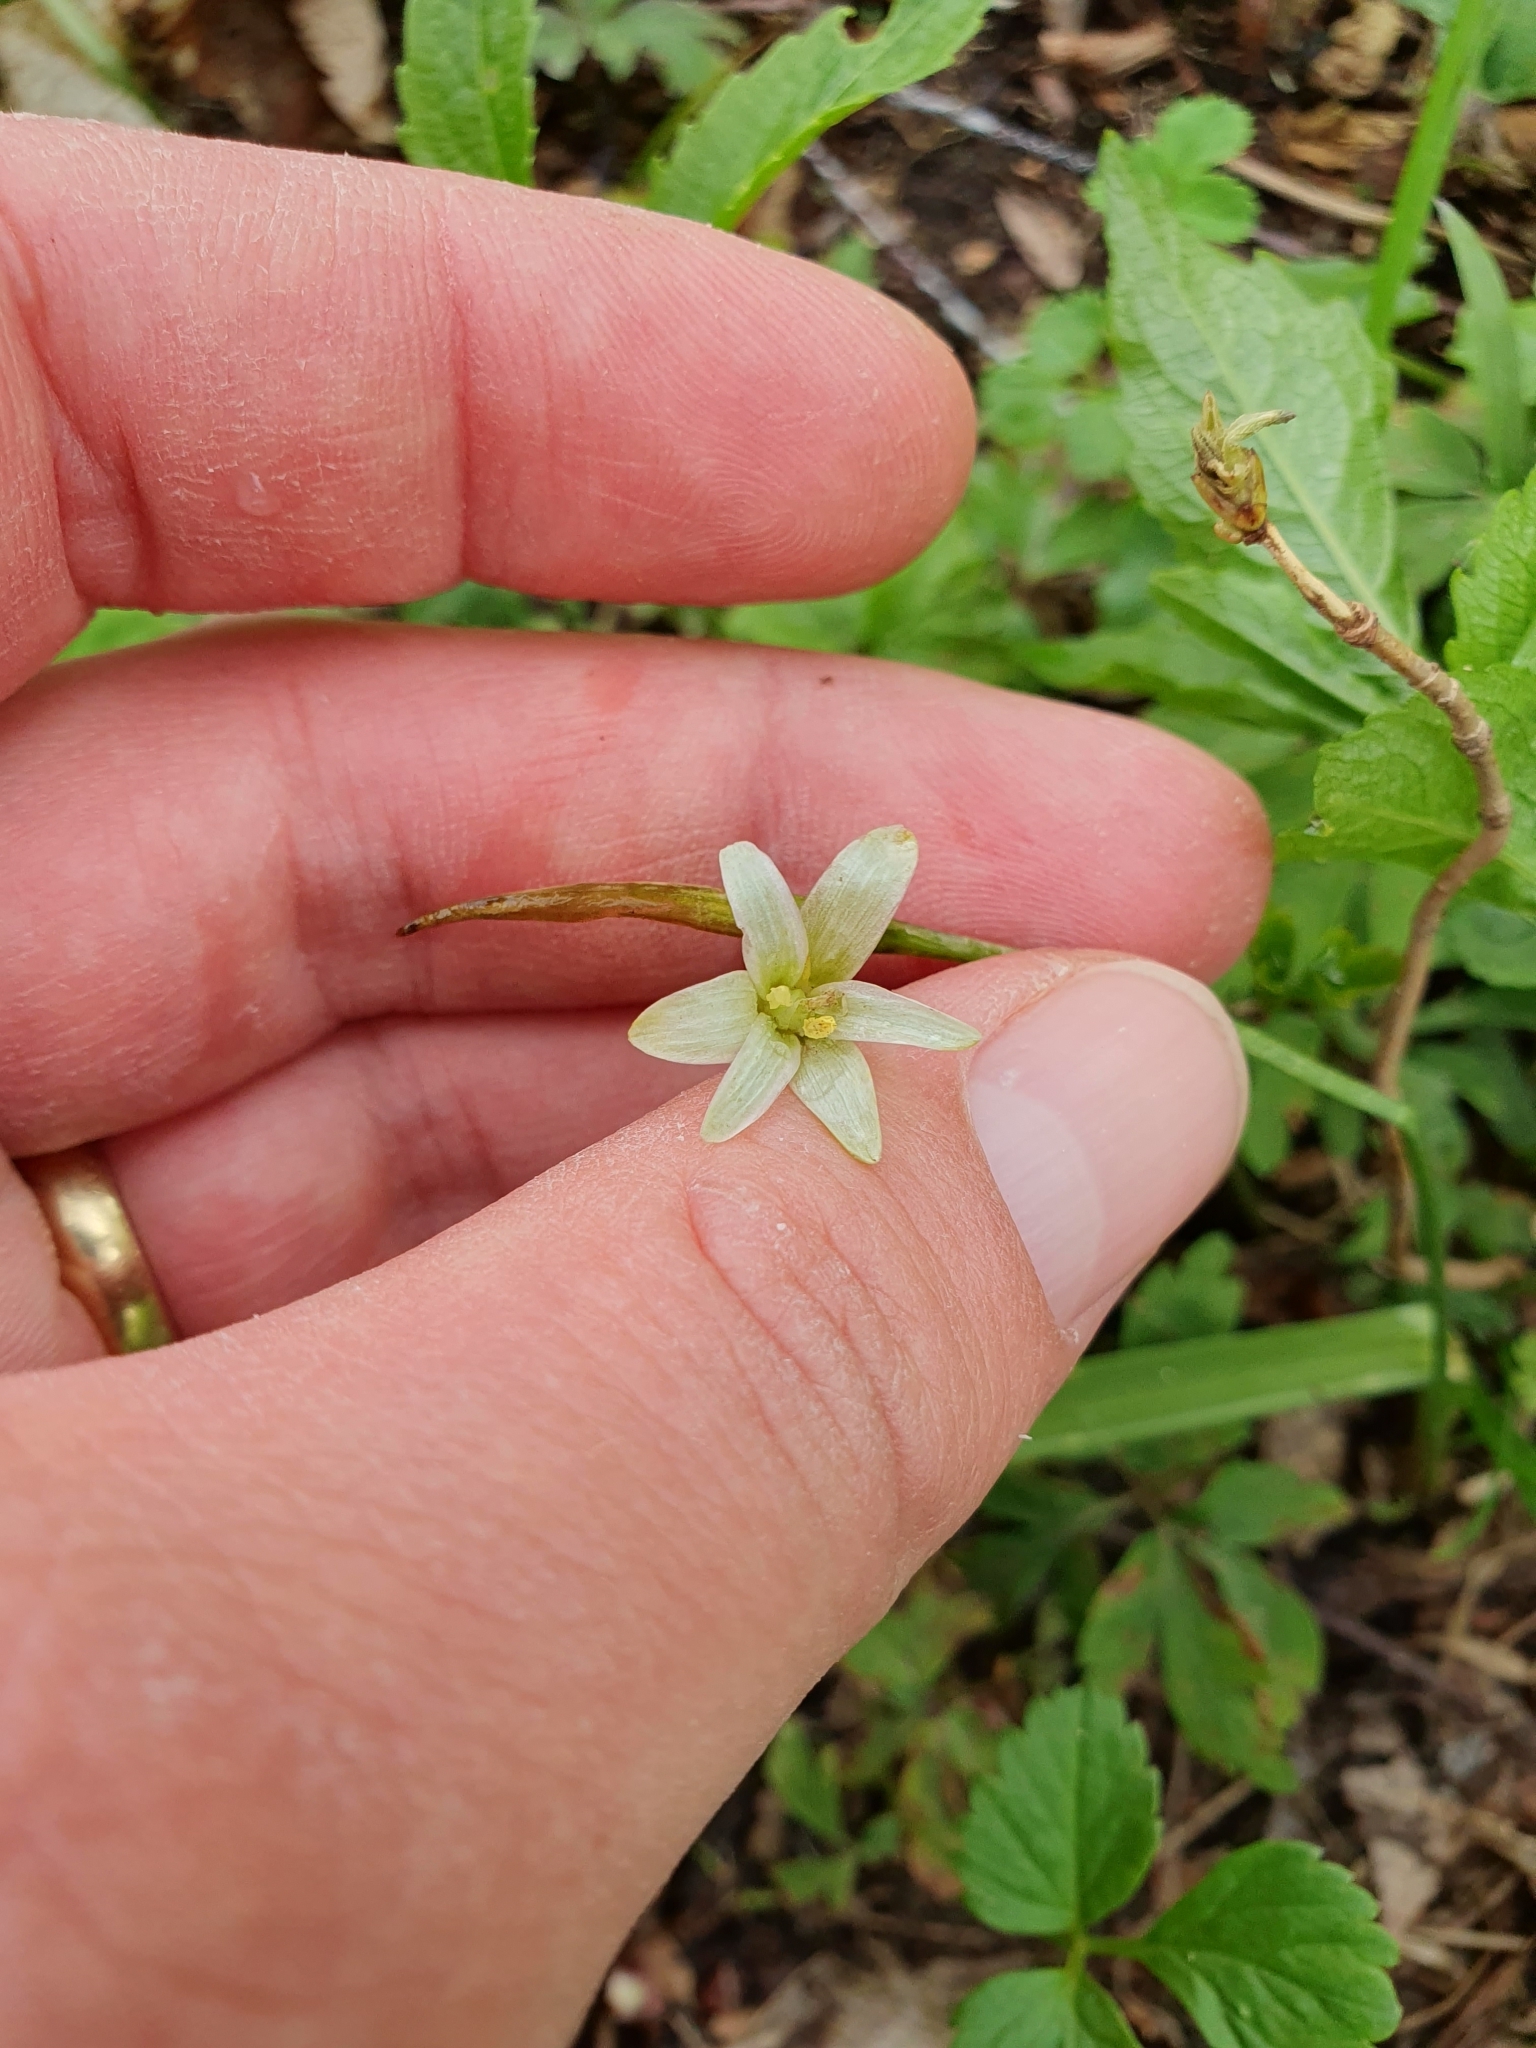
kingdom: Plantae
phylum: Tracheophyta
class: Liliopsida
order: Liliales
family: Liliaceae
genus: Gagea
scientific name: Gagea lutea
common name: Yellow star-of-bethlehem
